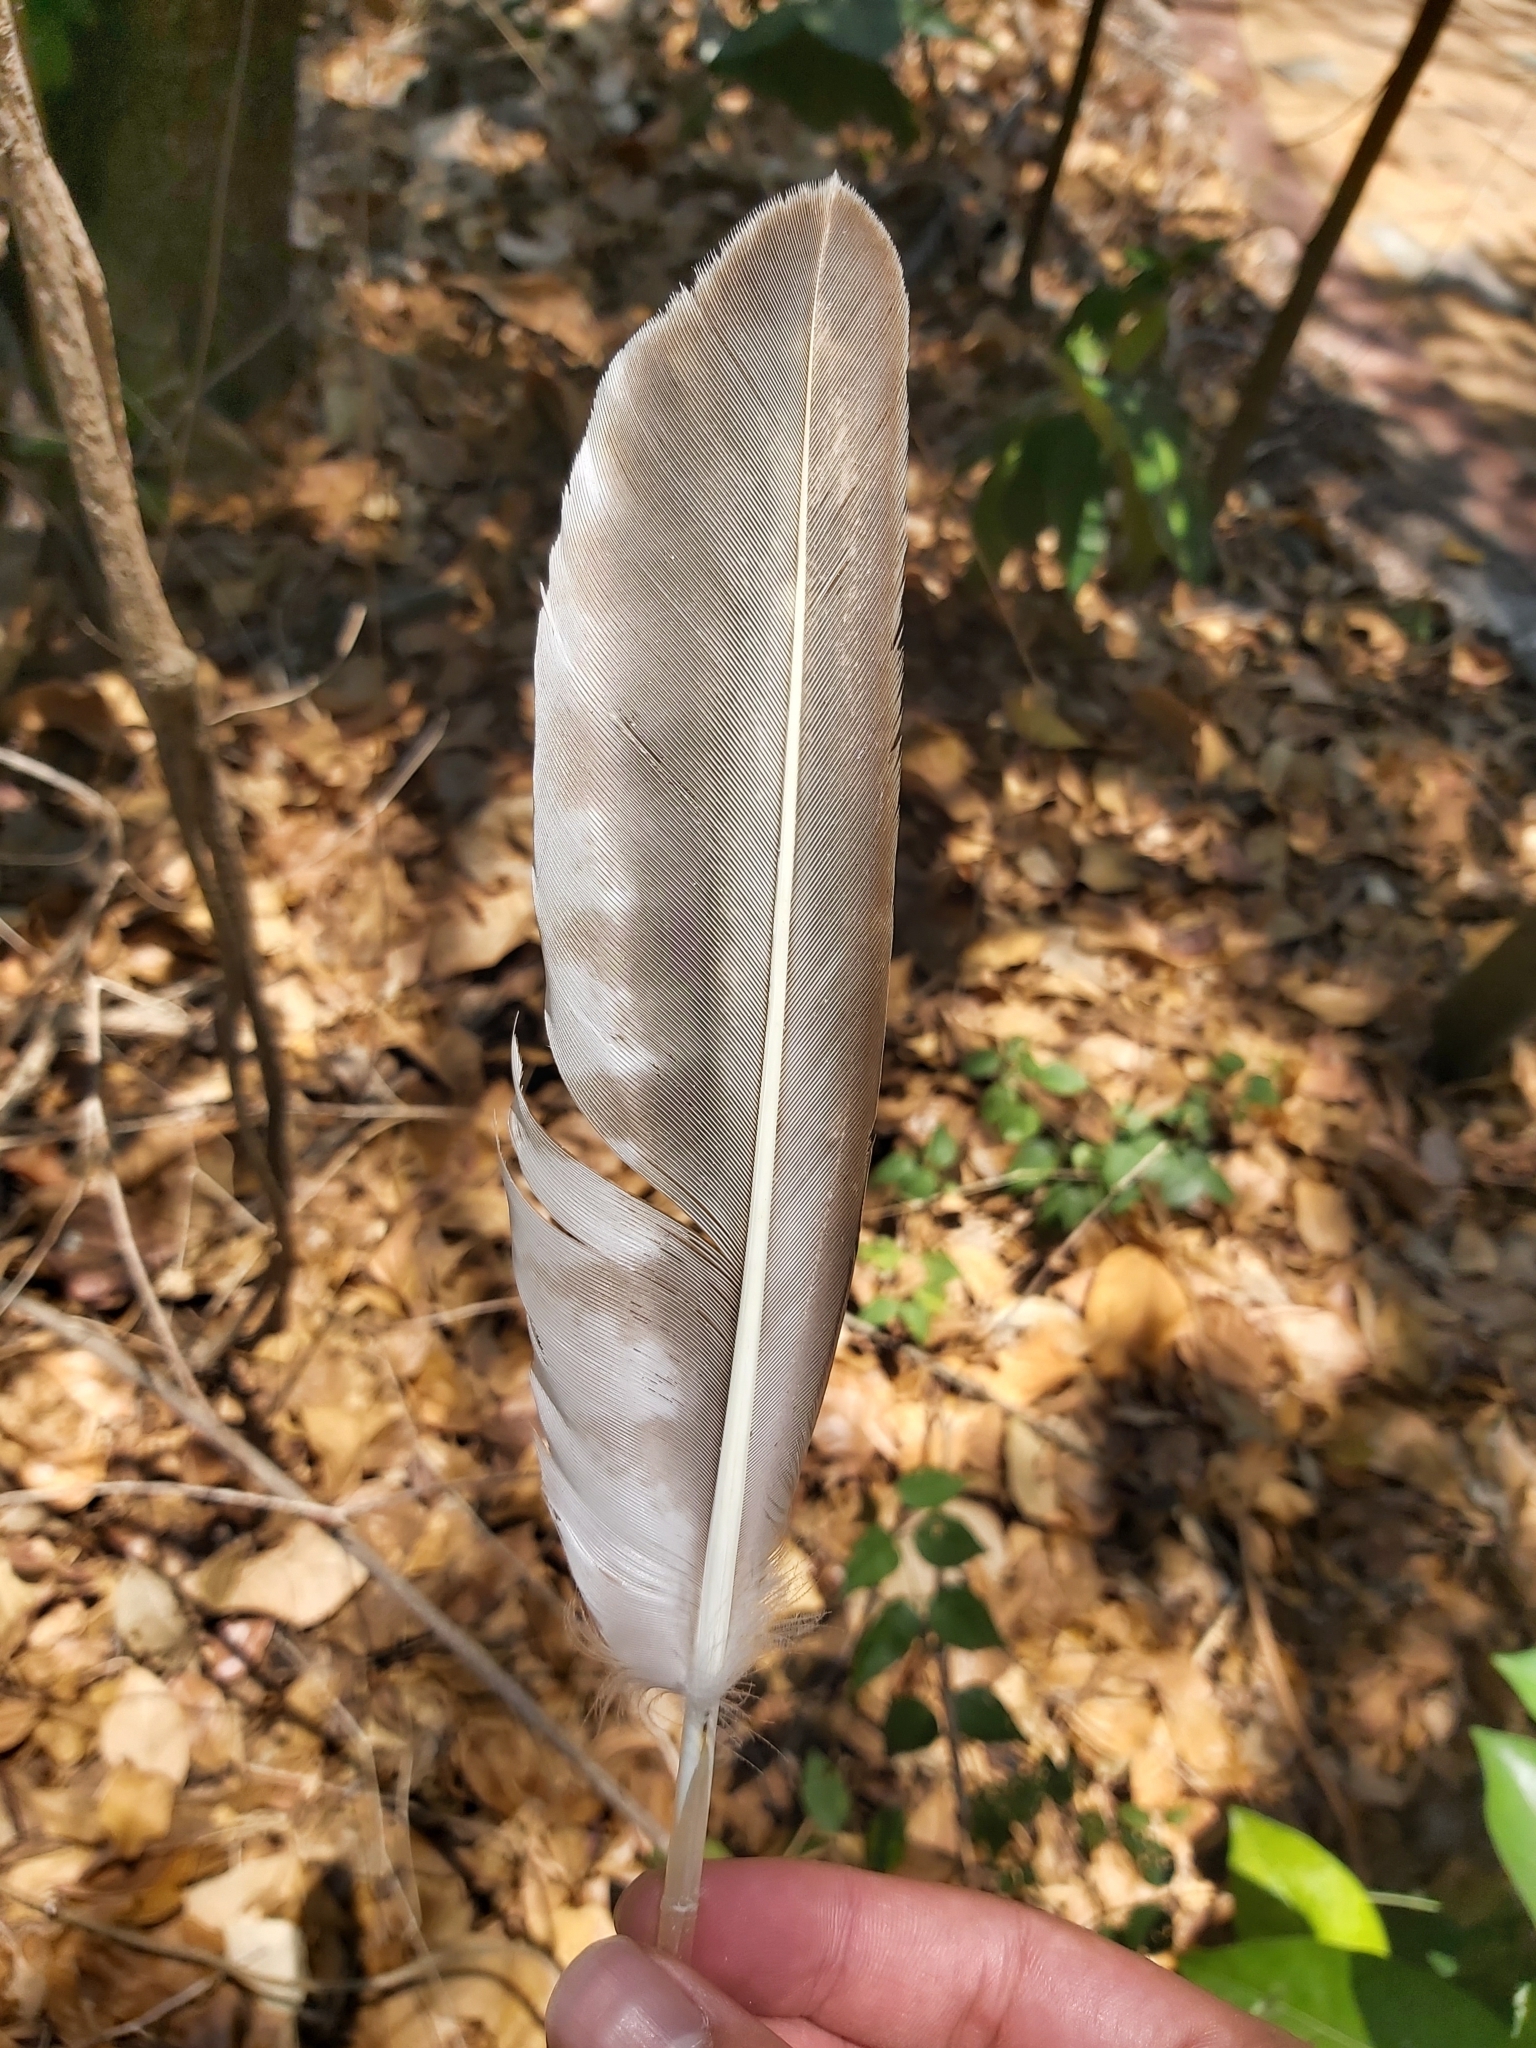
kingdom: Animalia
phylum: Chordata
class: Aves
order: Accipitriformes
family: Pandionidae
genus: Pandion
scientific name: Pandion haliaetus
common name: Osprey
